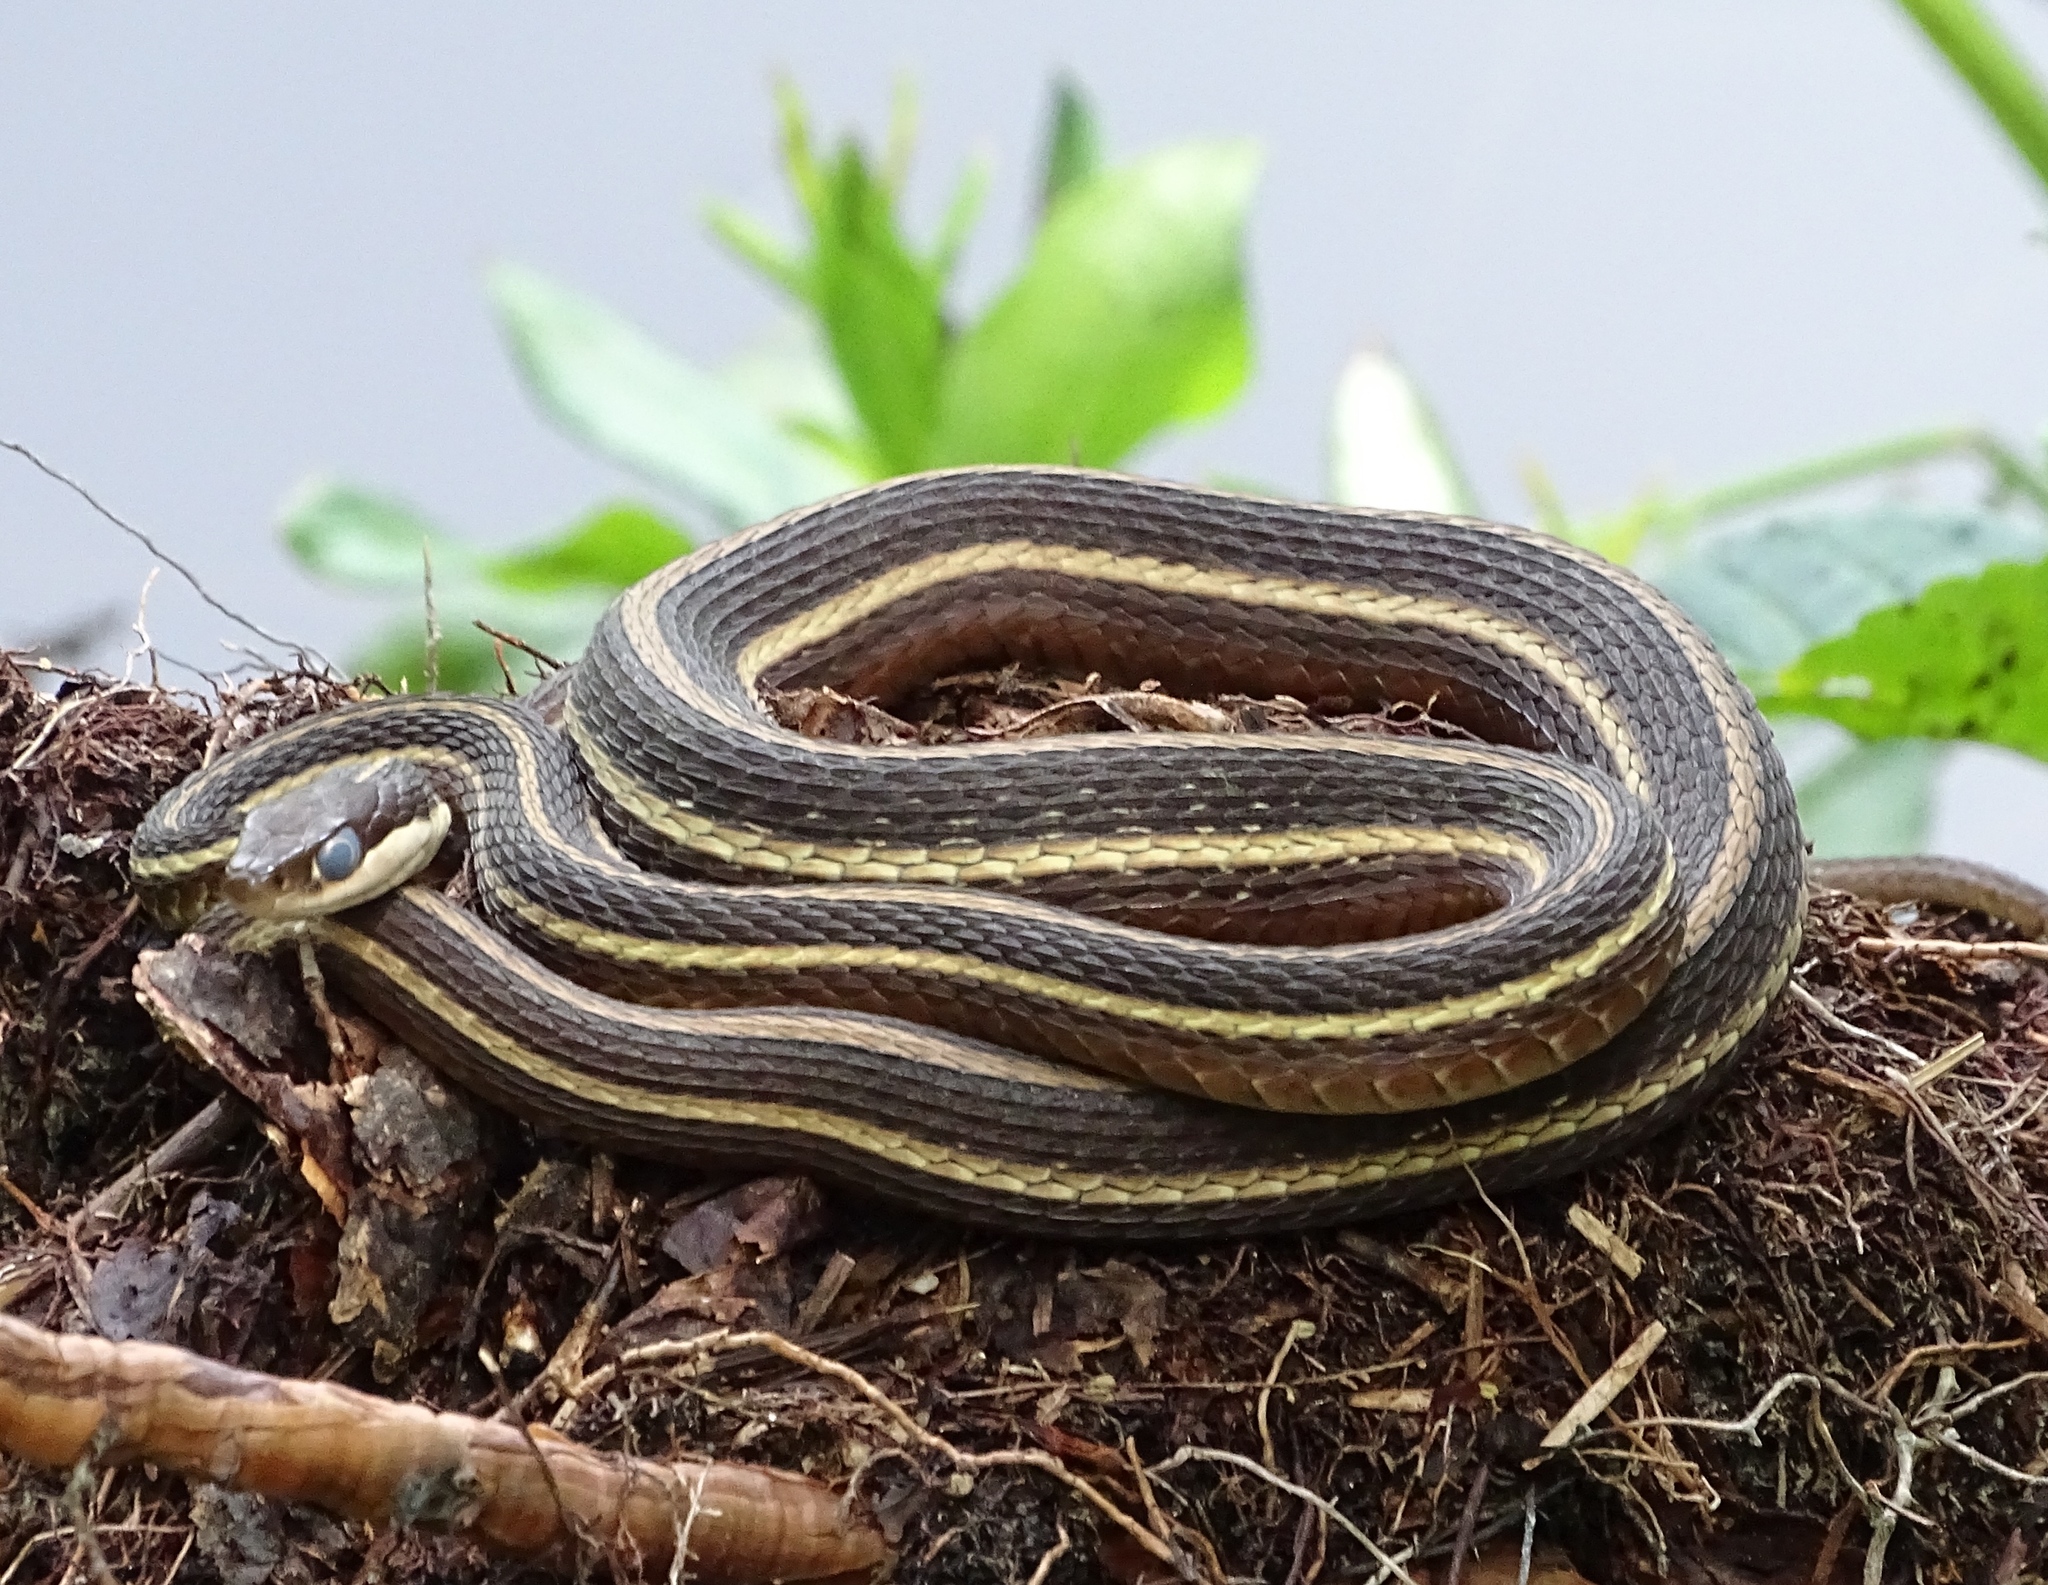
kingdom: Animalia
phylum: Chordata
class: Squamata
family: Colubridae
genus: Thamnophis
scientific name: Thamnophis saurita
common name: Eastern ribbonsnake
